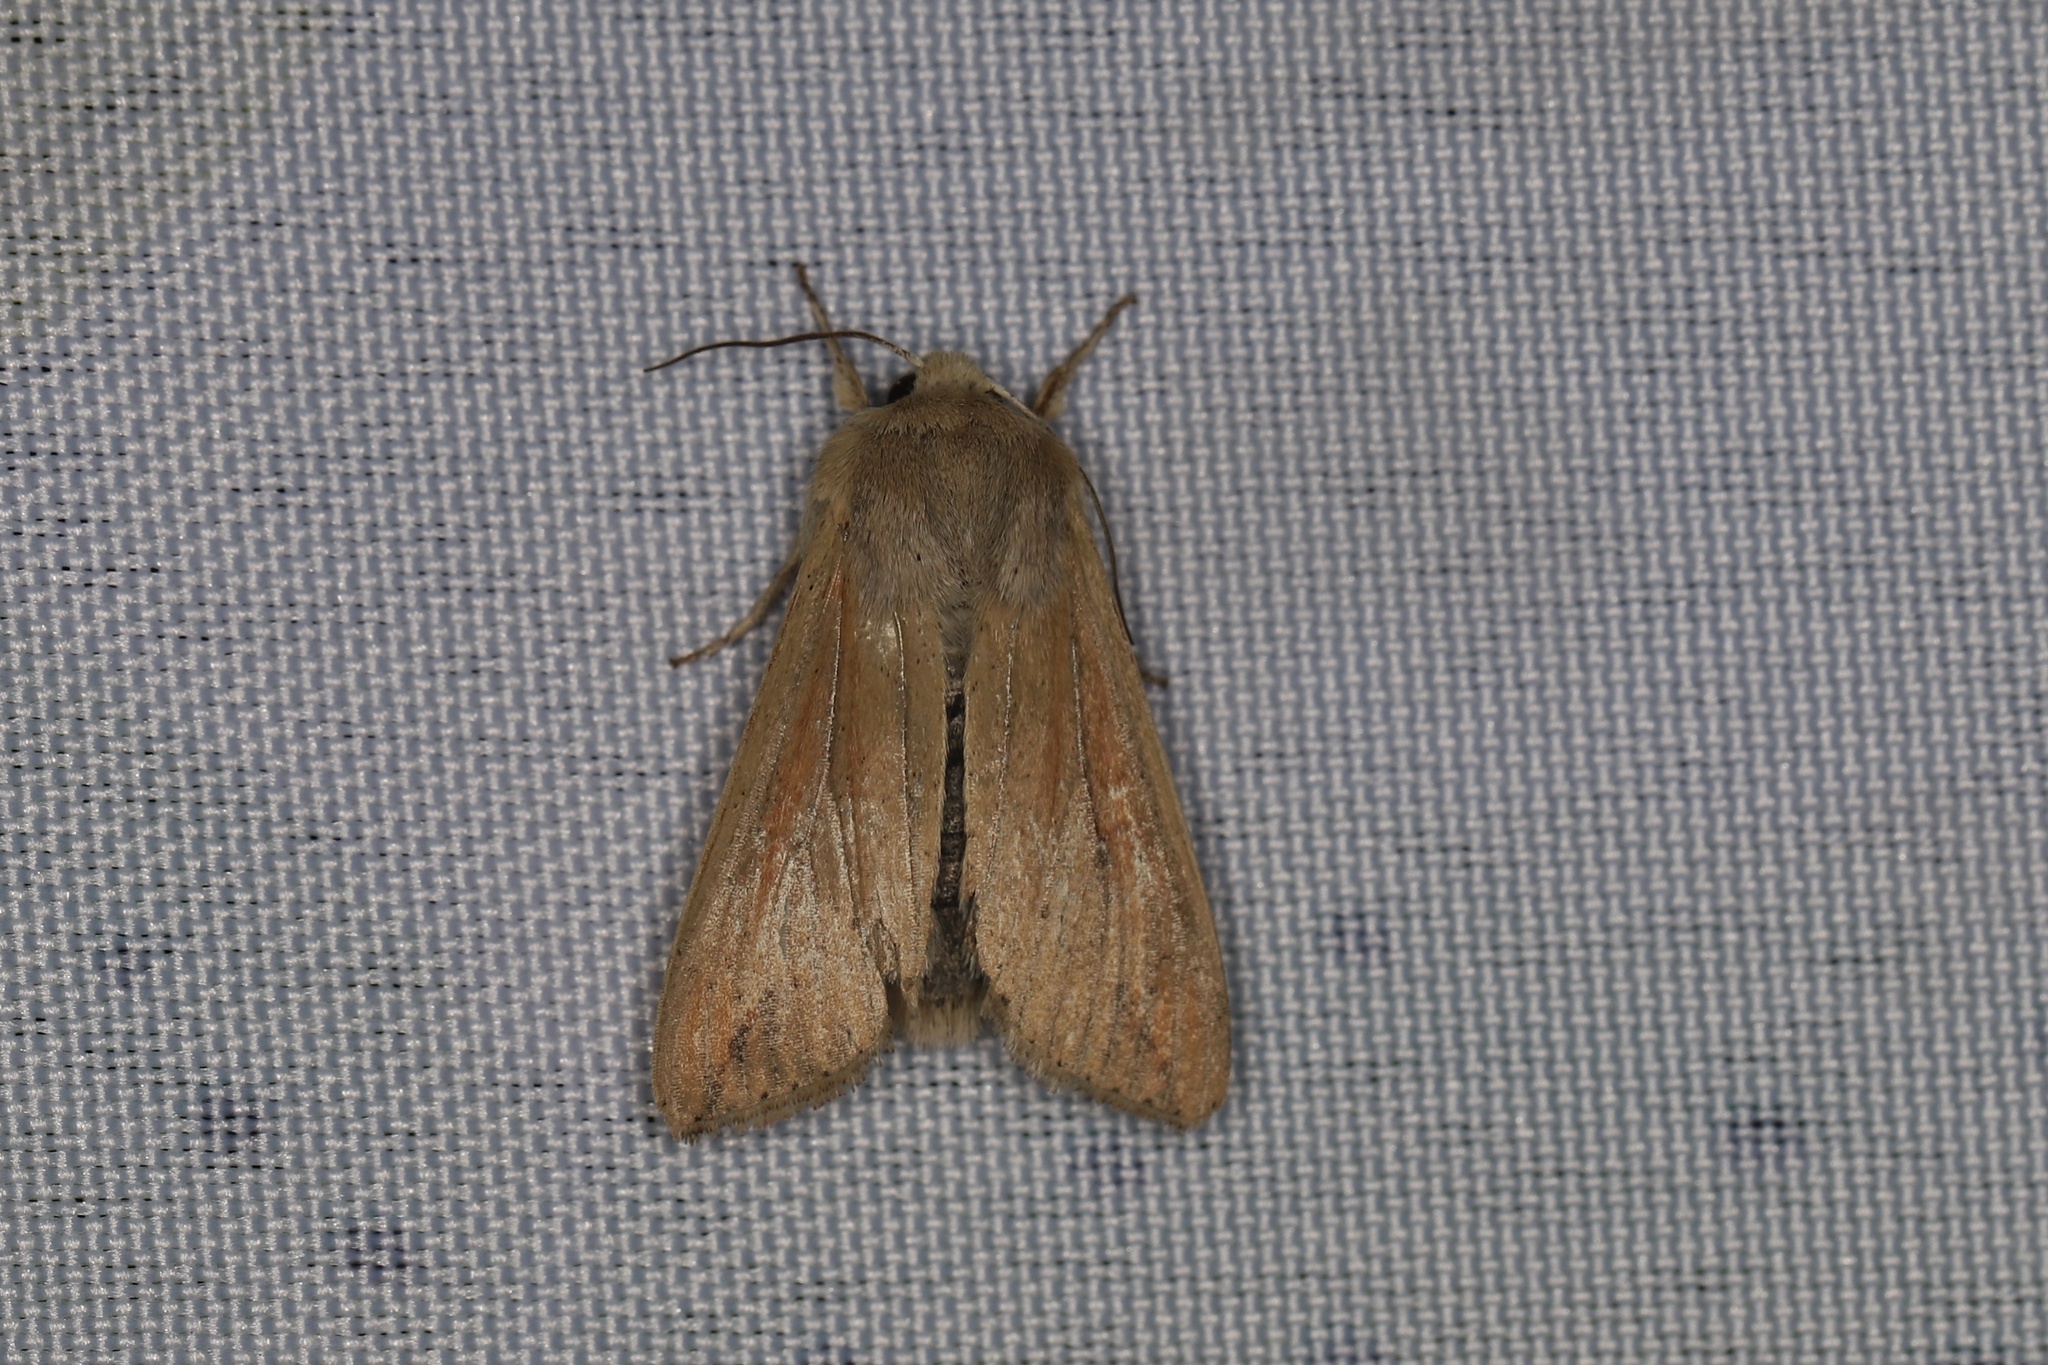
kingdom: Animalia
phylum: Arthropoda
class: Insecta
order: Lepidoptera
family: Noctuidae
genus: Mythimna
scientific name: Mythimna unipuncta
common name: White-speck
